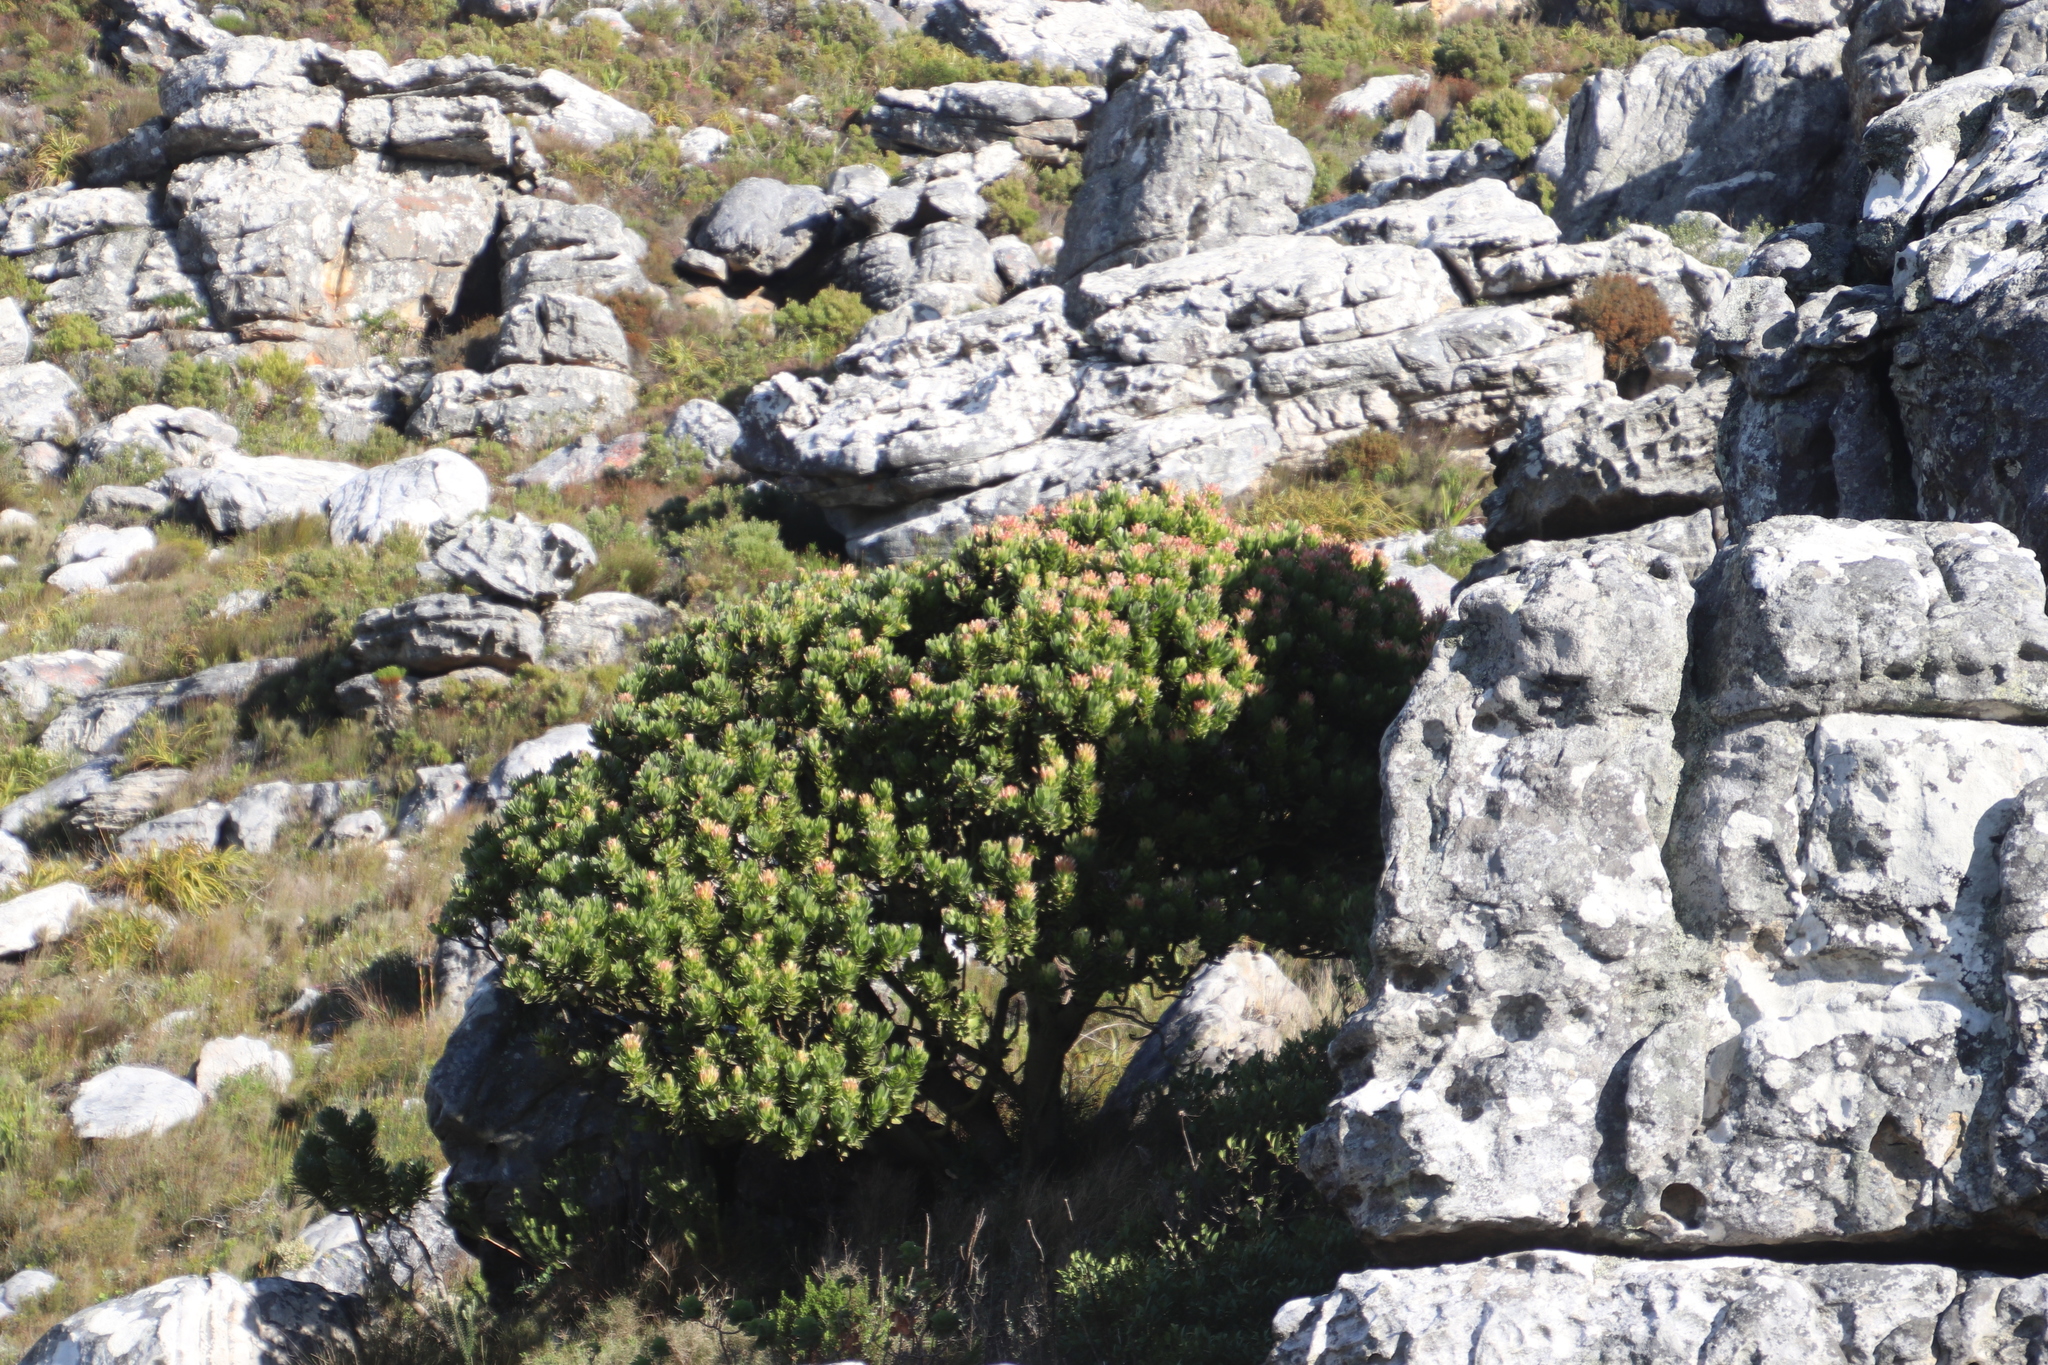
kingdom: Plantae
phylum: Tracheophyta
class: Magnoliopsida
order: Proteales
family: Proteaceae
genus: Mimetes
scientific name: Mimetes fimbriifolius
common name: Fringed bottlebrush
